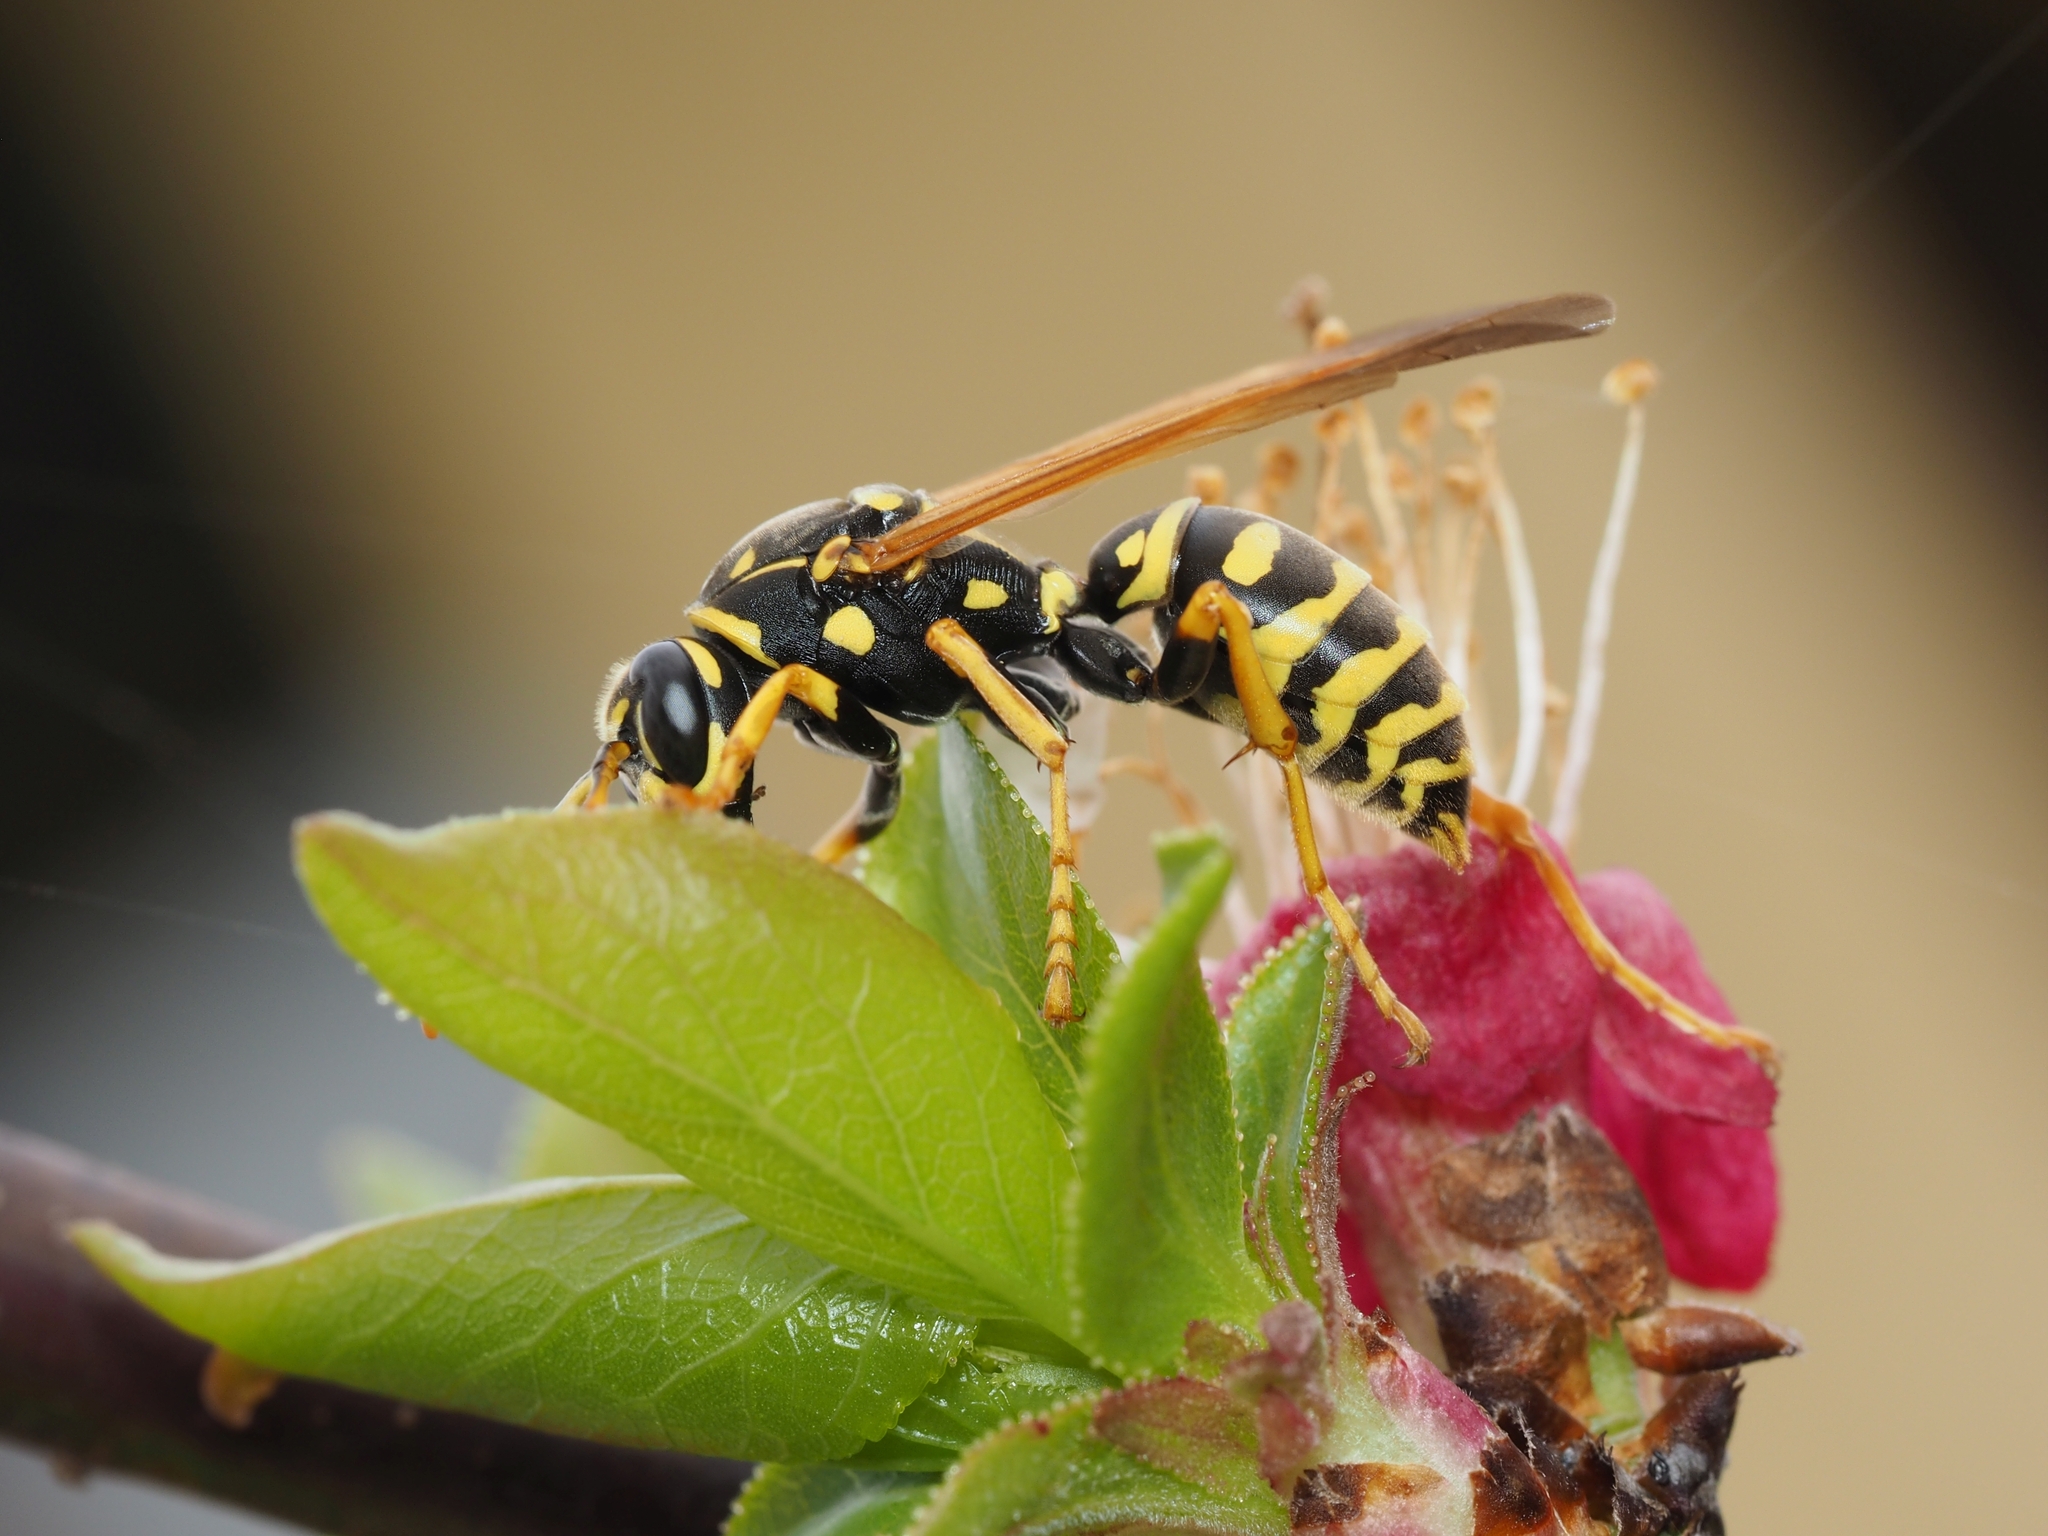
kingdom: Animalia
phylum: Arthropoda
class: Insecta
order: Hymenoptera
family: Eumenidae
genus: Polistes
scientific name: Polistes dominula
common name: Paper wasp
